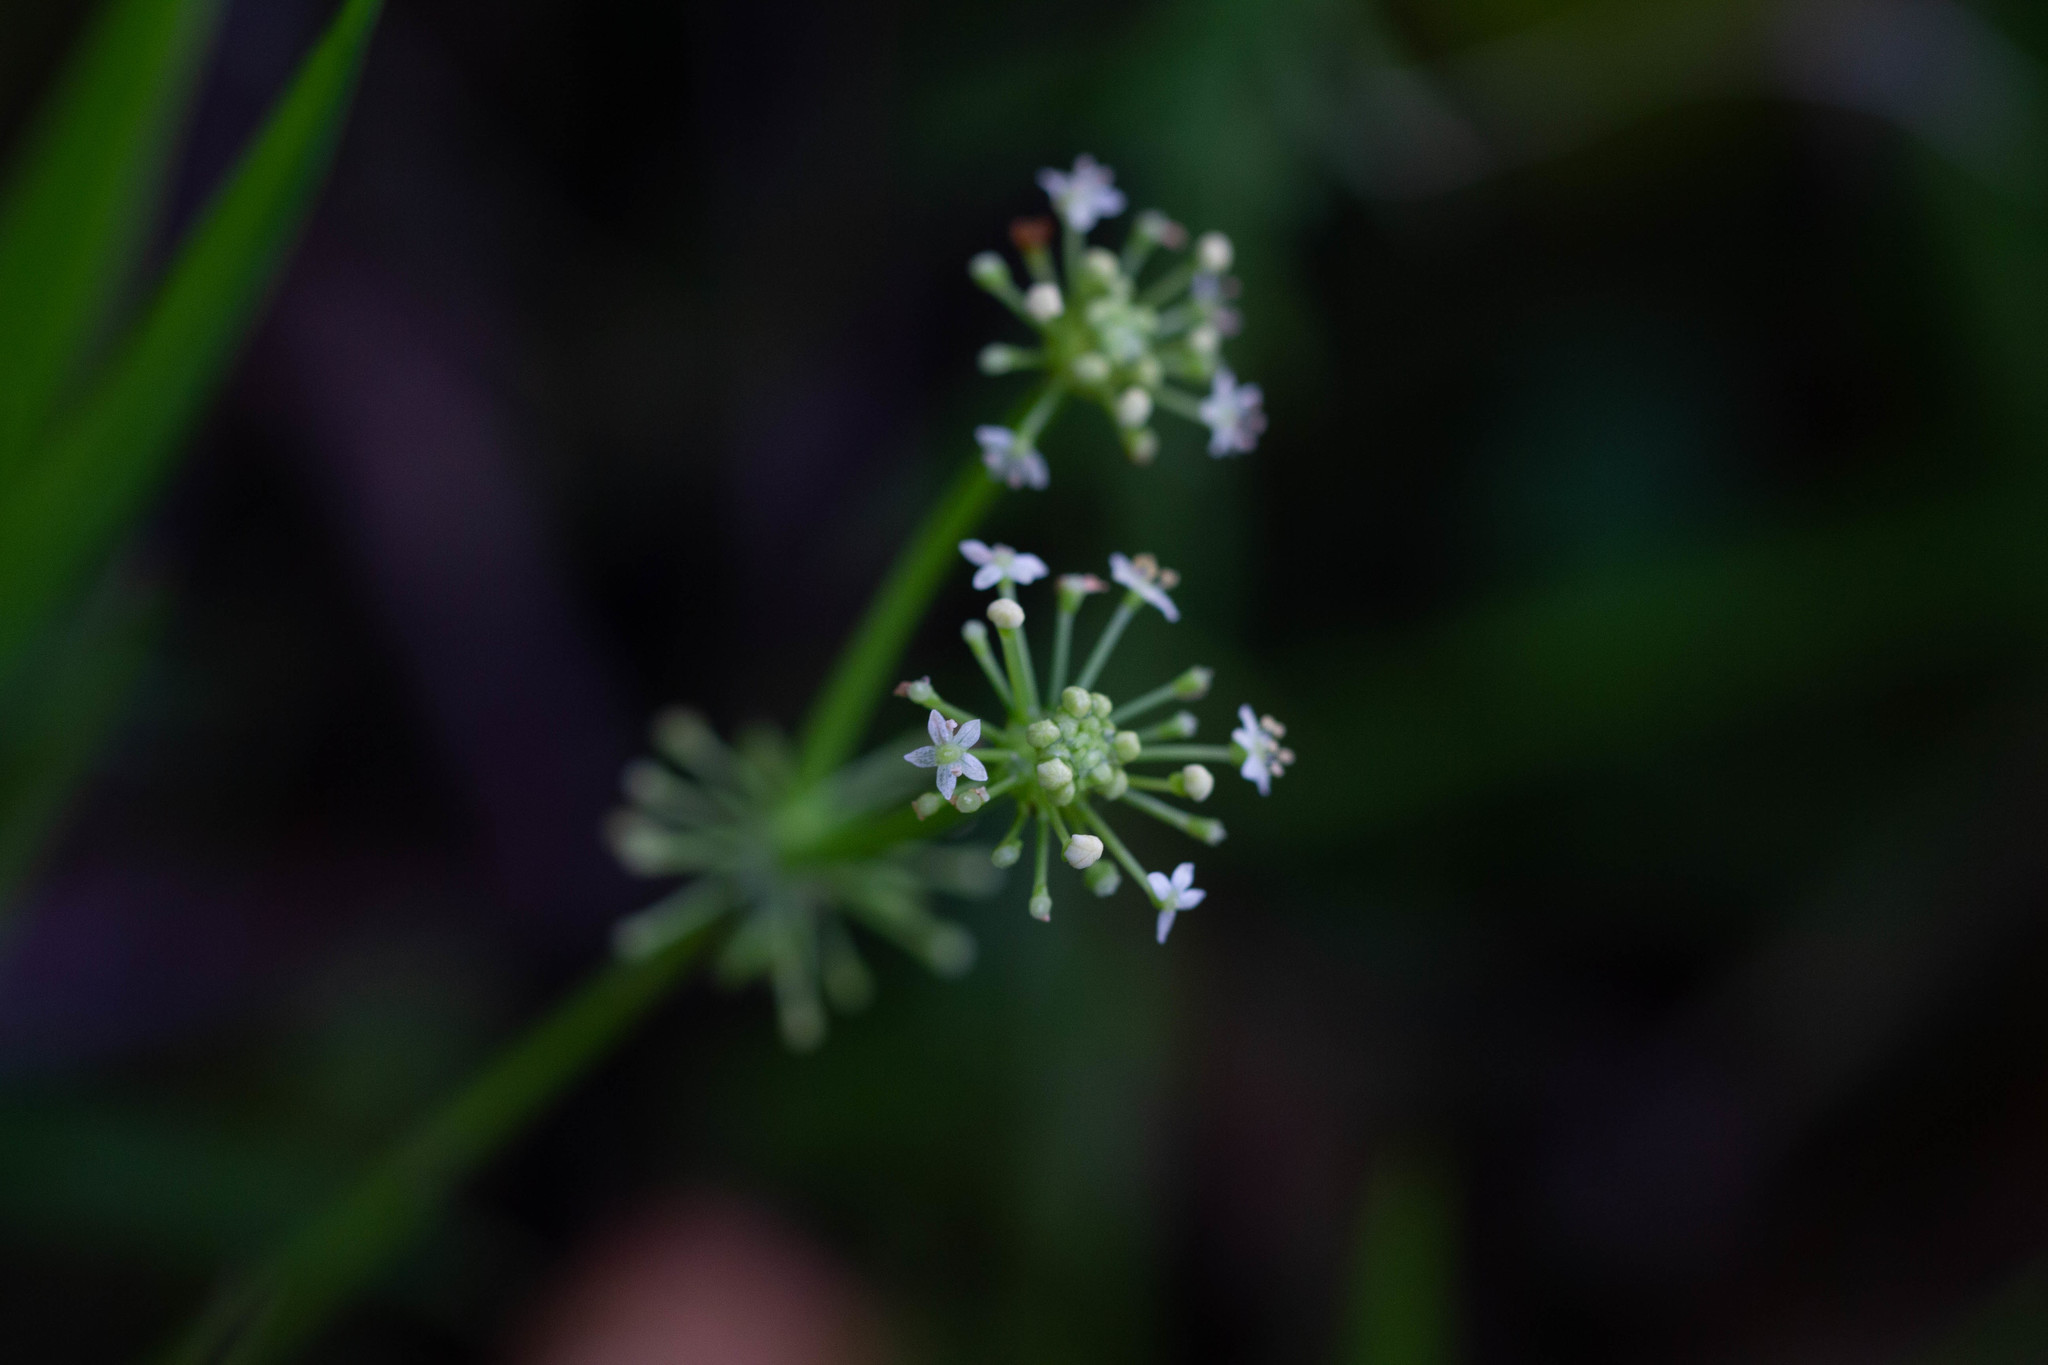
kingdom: Plantae
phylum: Tracheophyta
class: Magnoliopsida
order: Apiales
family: Araliaceae
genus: Hydrocotyle
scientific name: Hydrocotyle bonariensis
